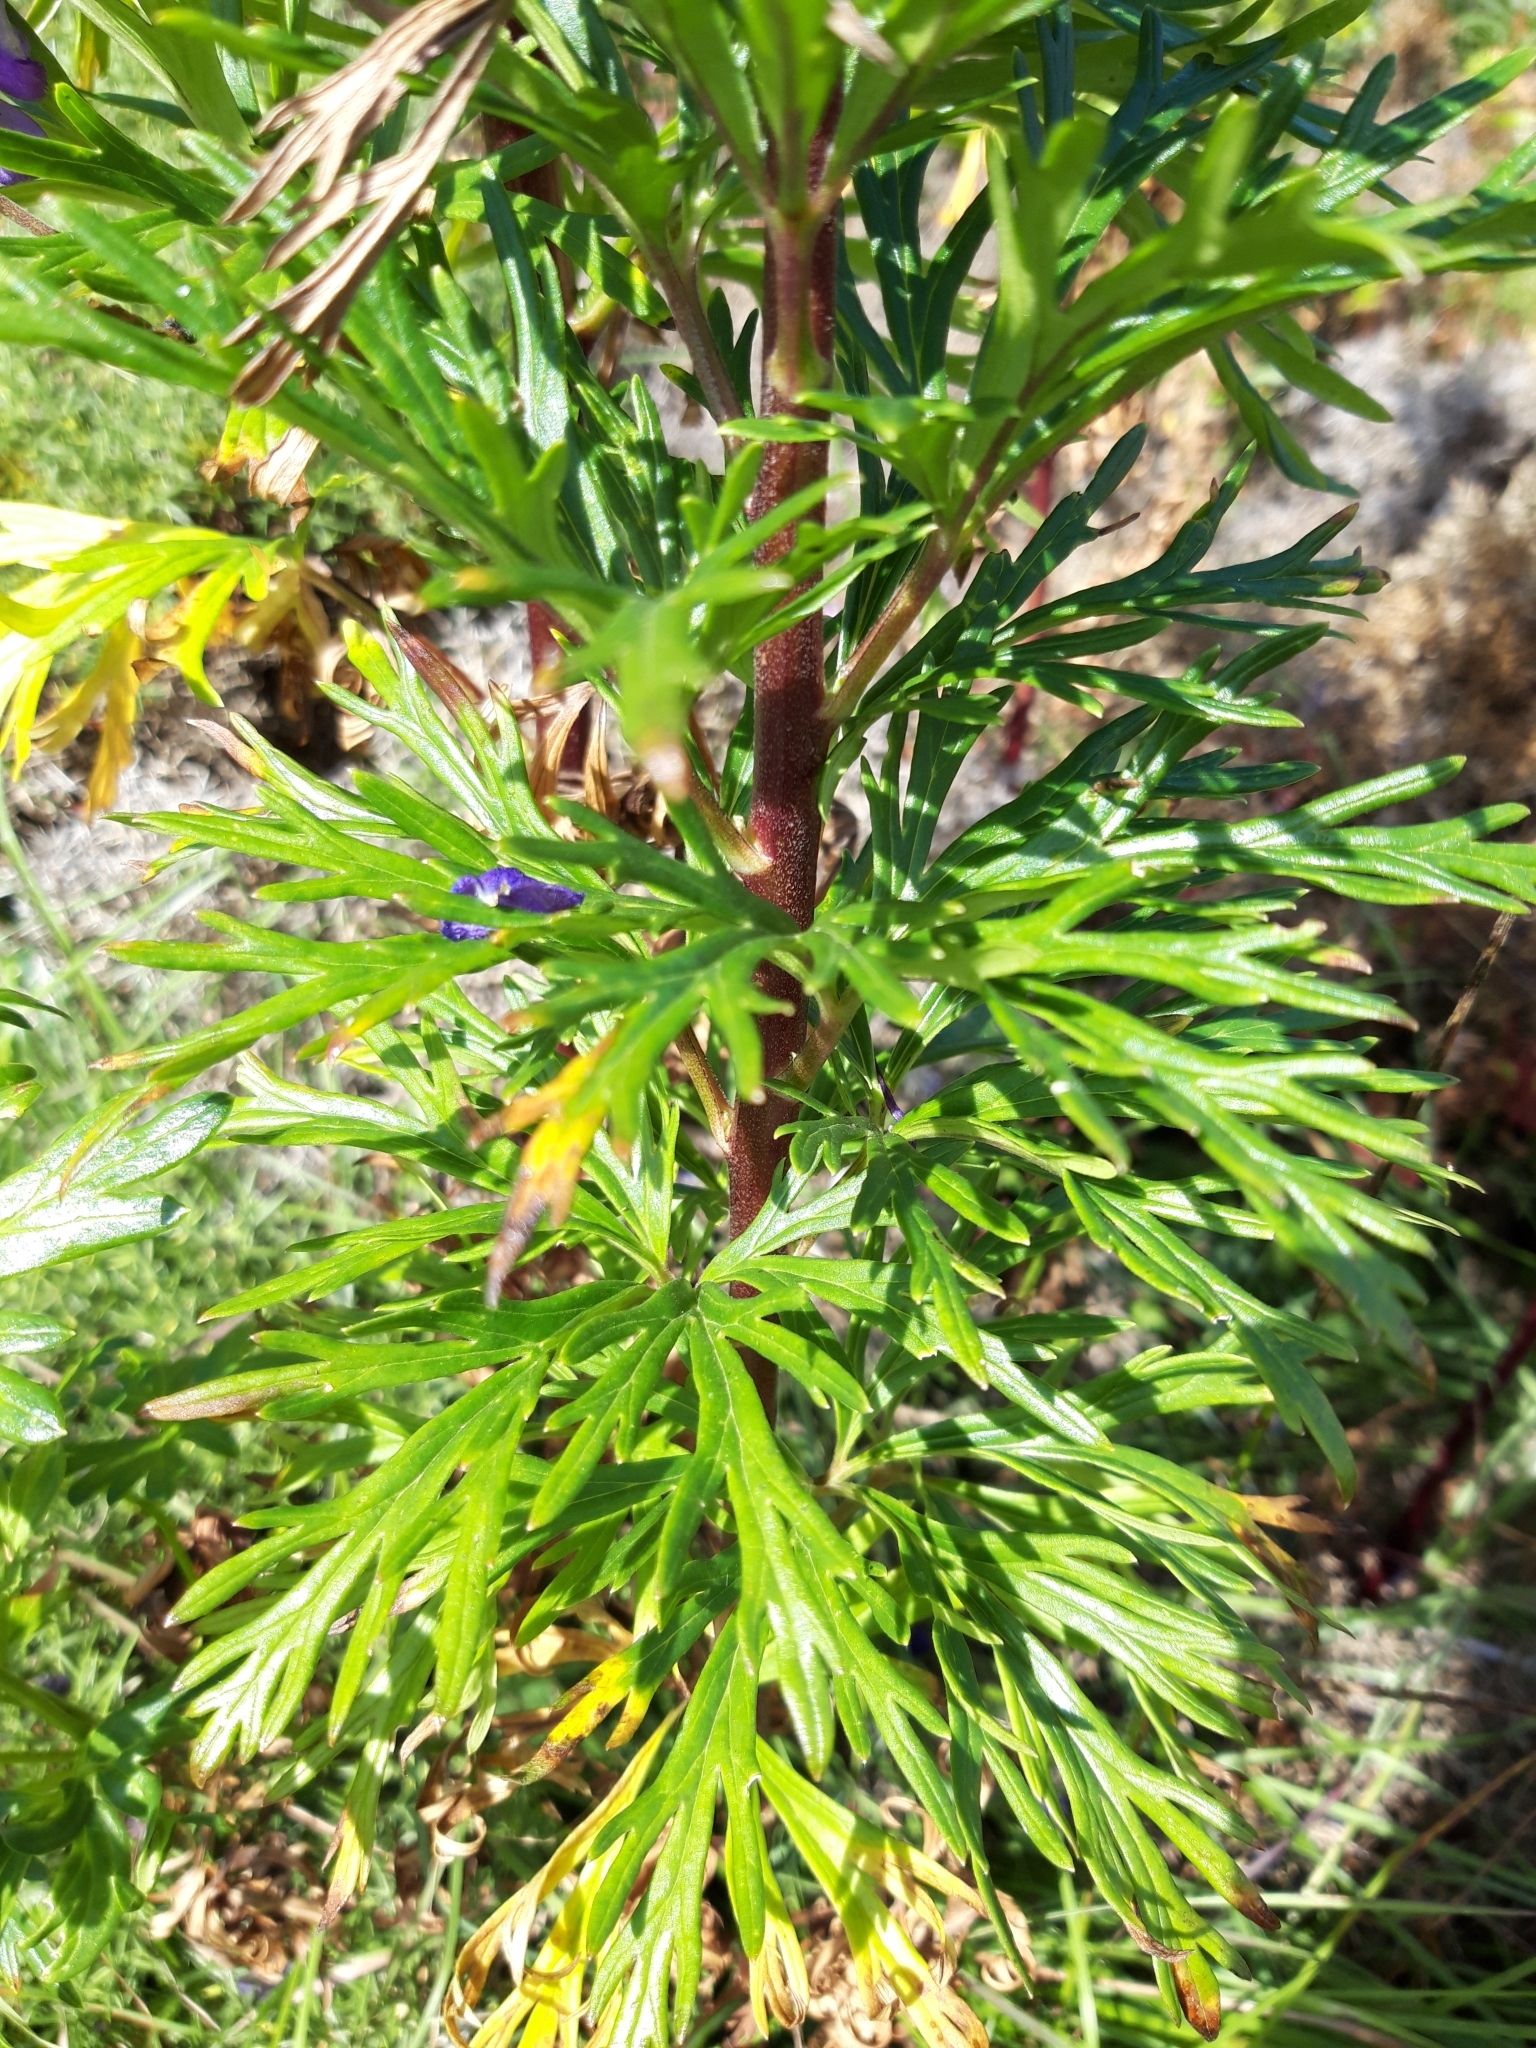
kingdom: Plantae
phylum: Tracheophyta
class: Magnoliopsida
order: Ranunculales
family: Ranunculaceae
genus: Aconitum
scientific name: Aconitum napellus
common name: Garden monkshood
